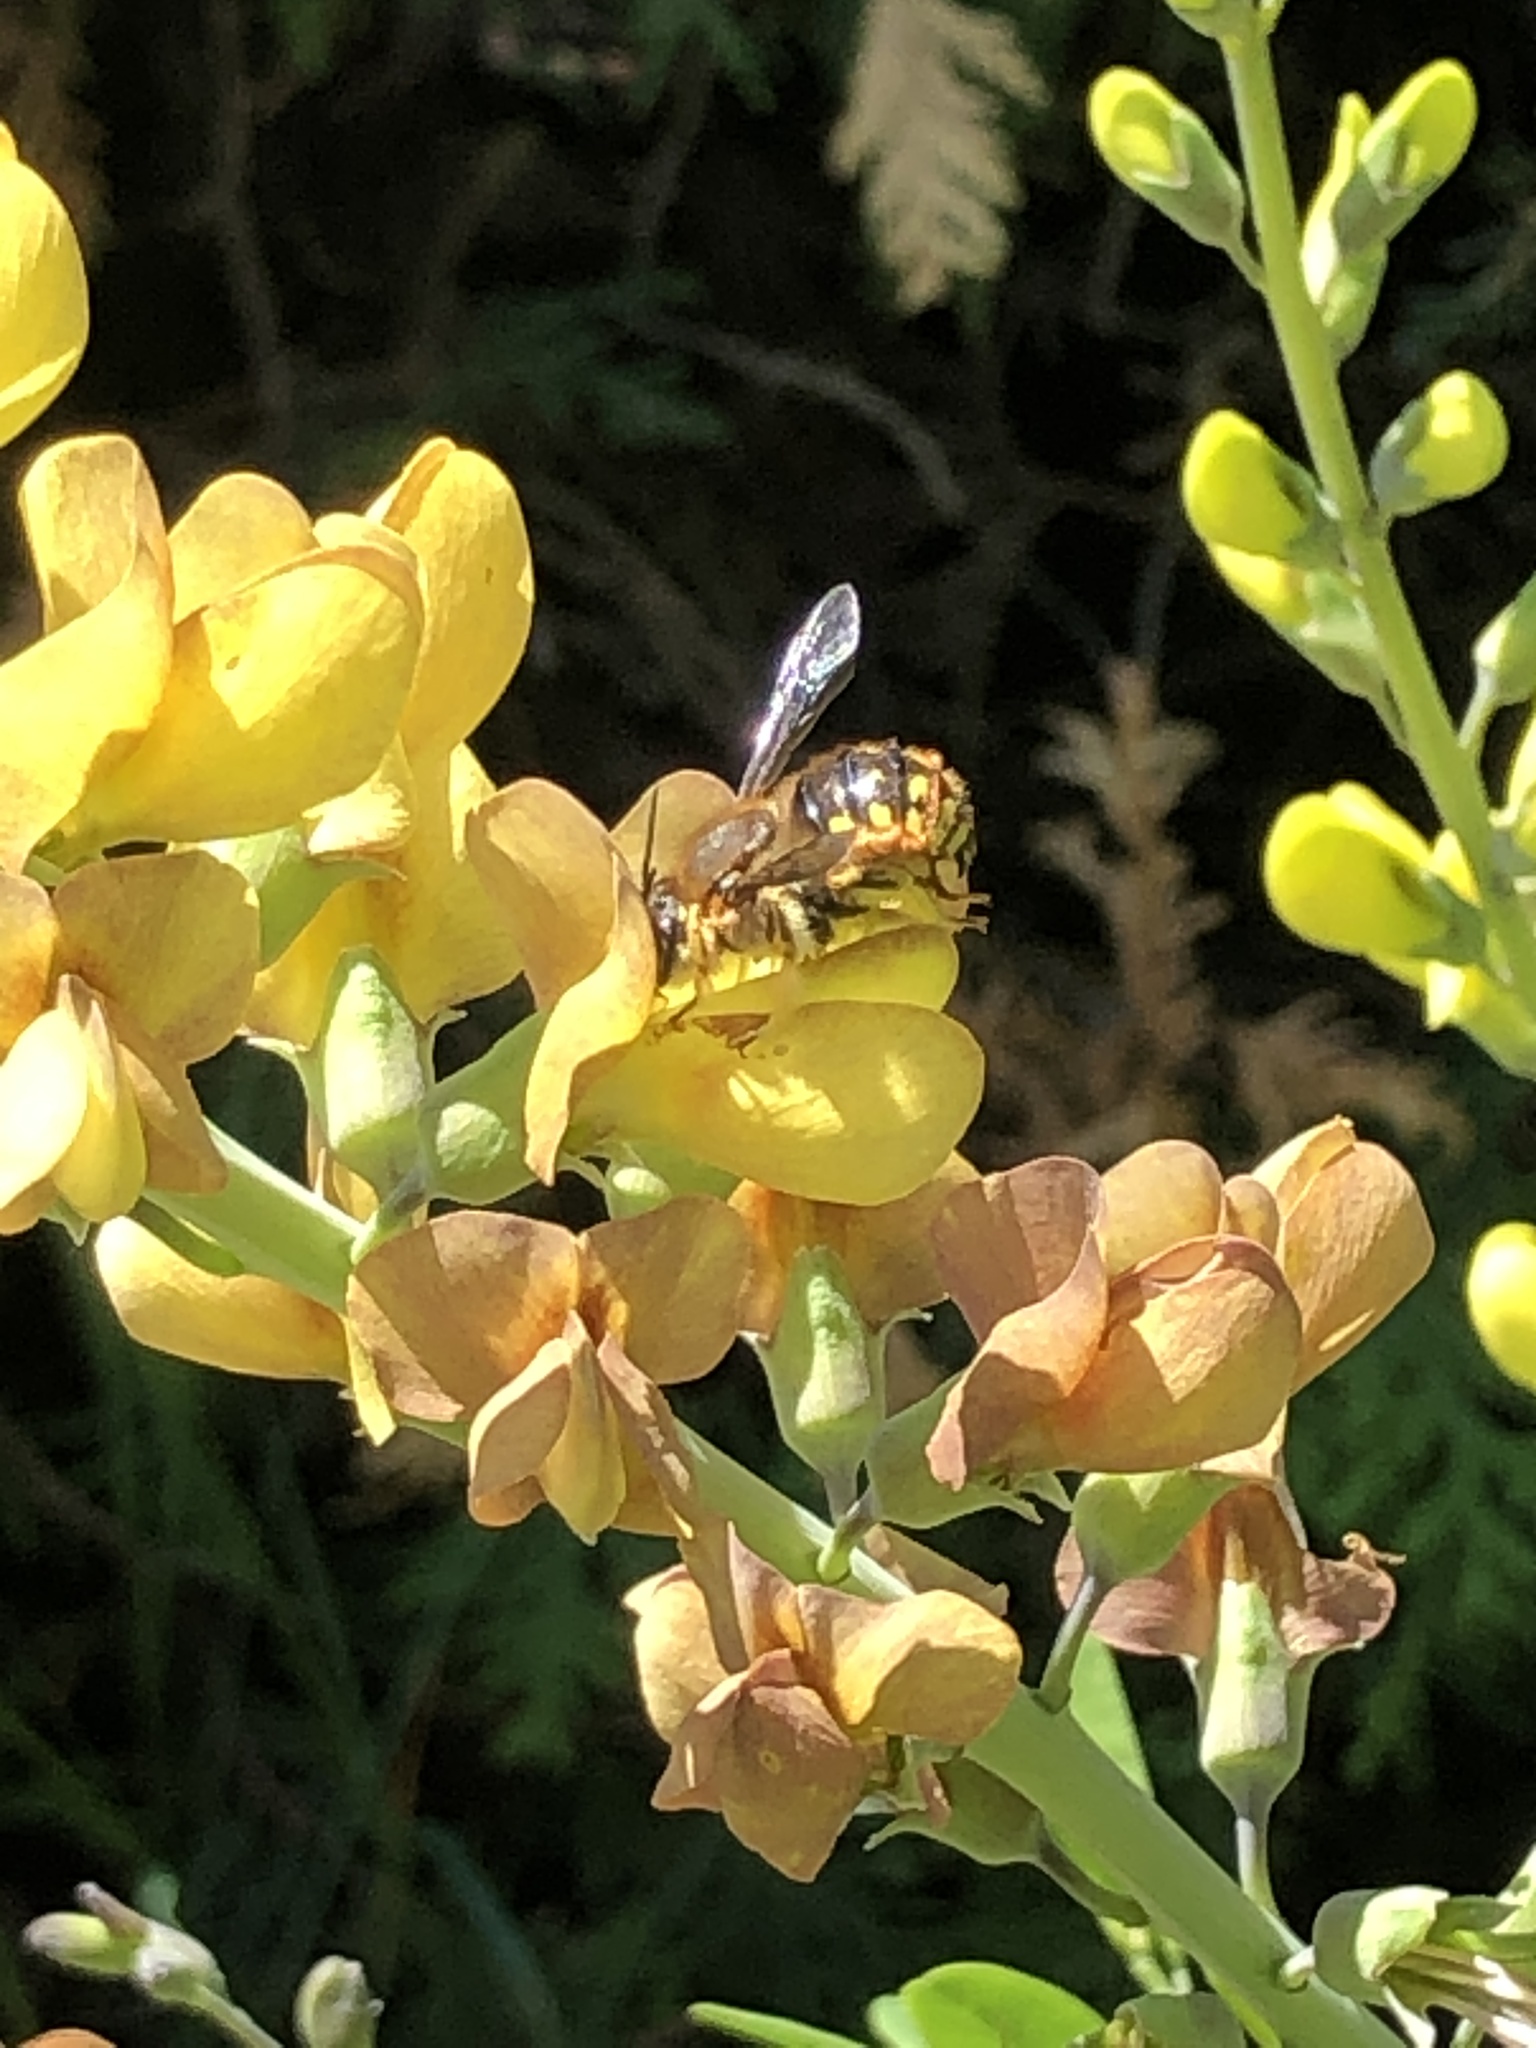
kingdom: Animalia
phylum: Arthropoda
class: Insecta
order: Hymenoptera
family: Megachilidae
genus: Anthidium
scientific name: Anthidium manicatum
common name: Wool carder bee
